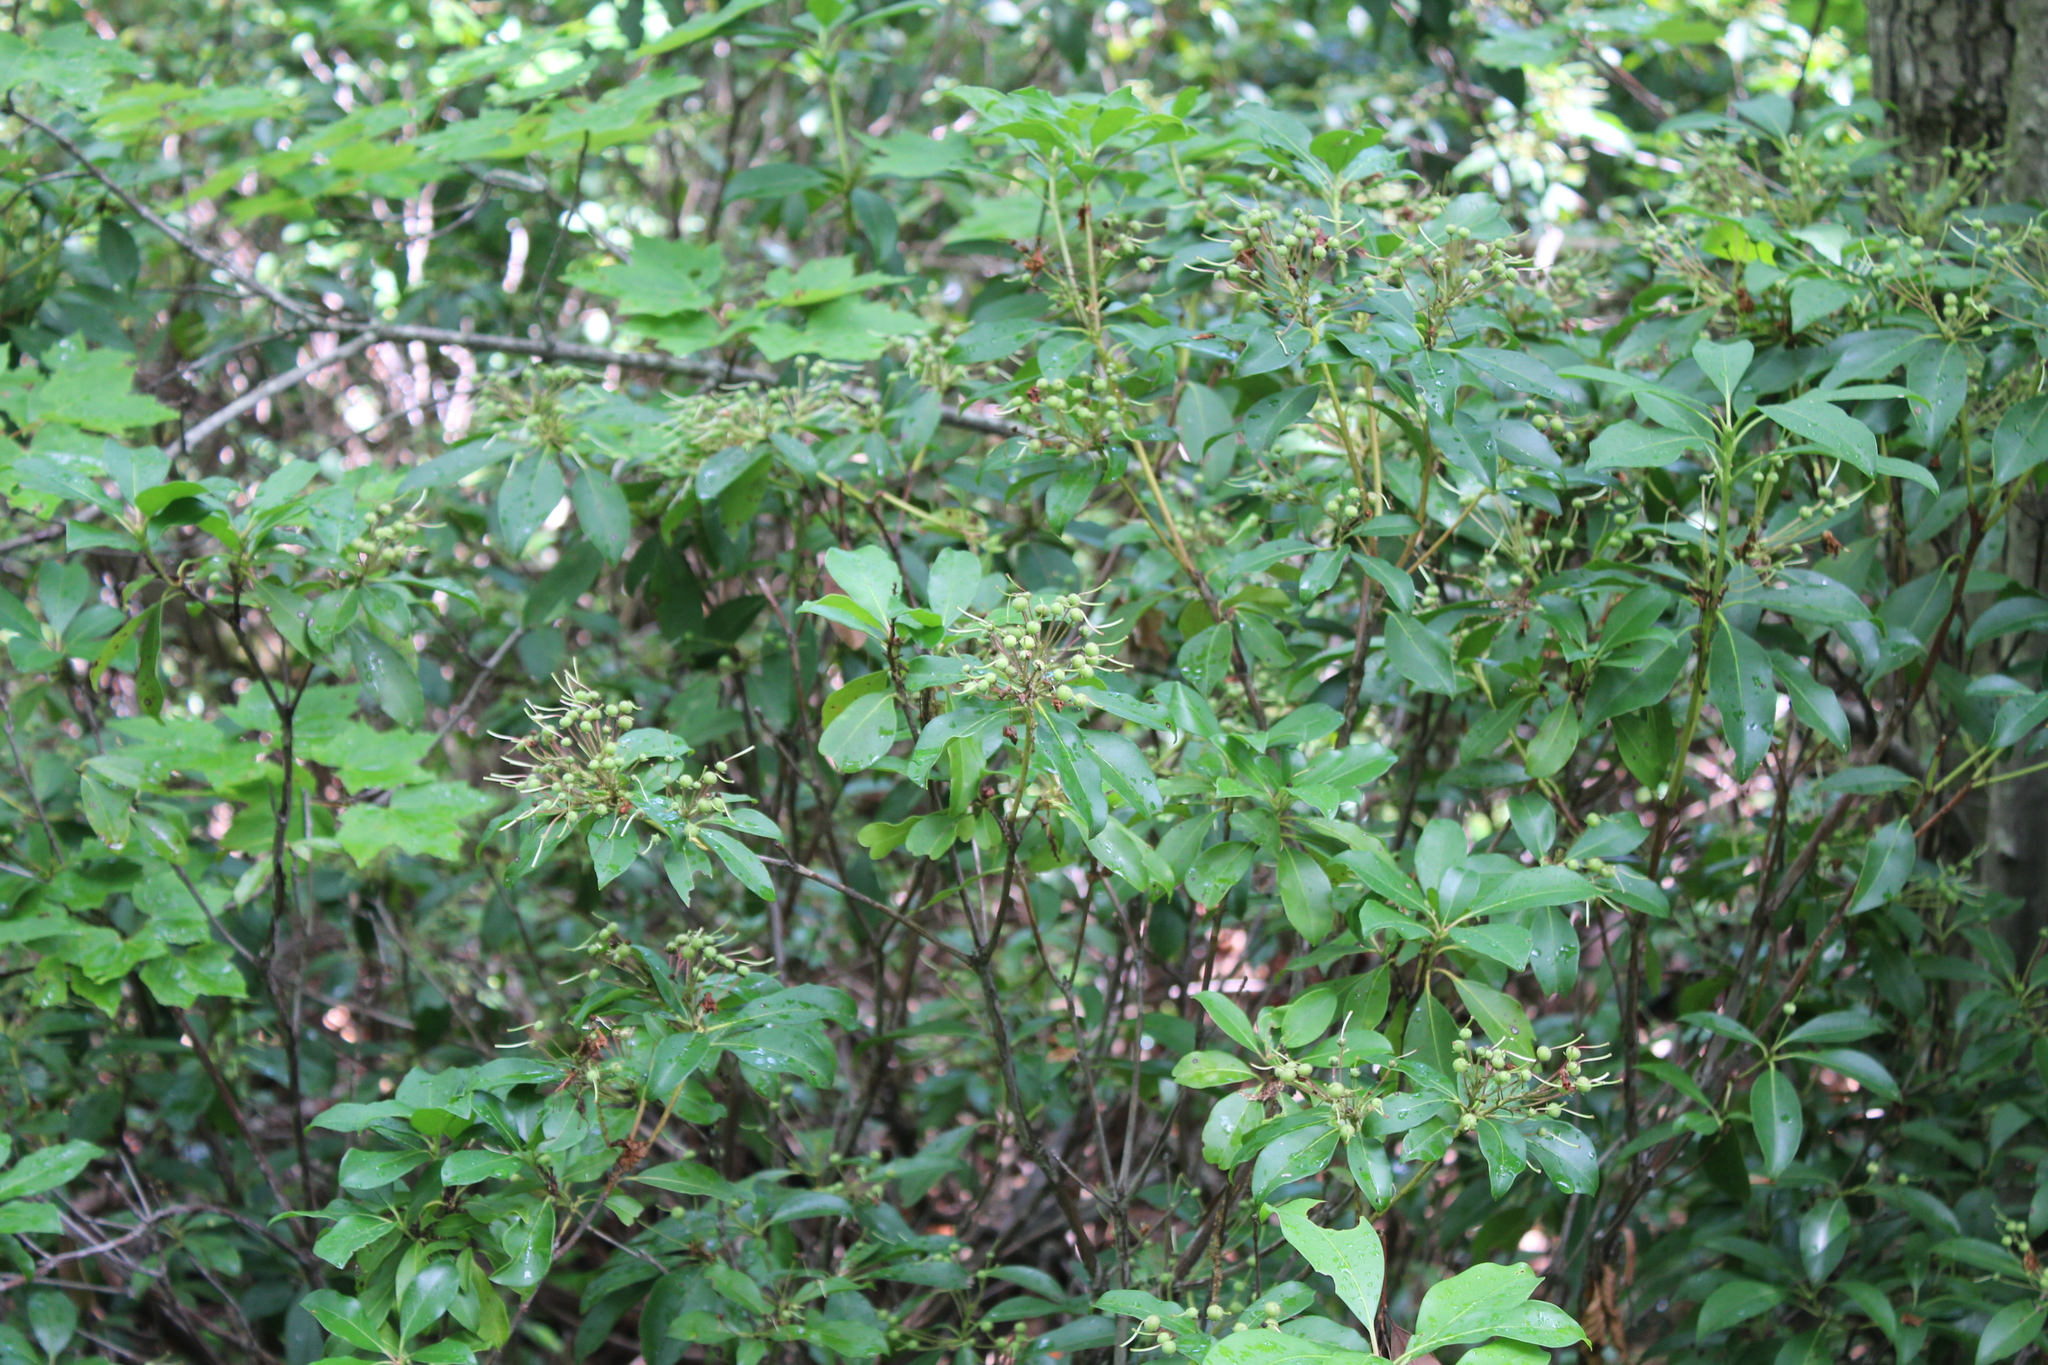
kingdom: Plantae
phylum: Tracheophyta
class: Magnoliopsida
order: Ericales
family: Ericaceae
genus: Kalmia
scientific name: Kalmia latifolia
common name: Mountain-laurel
